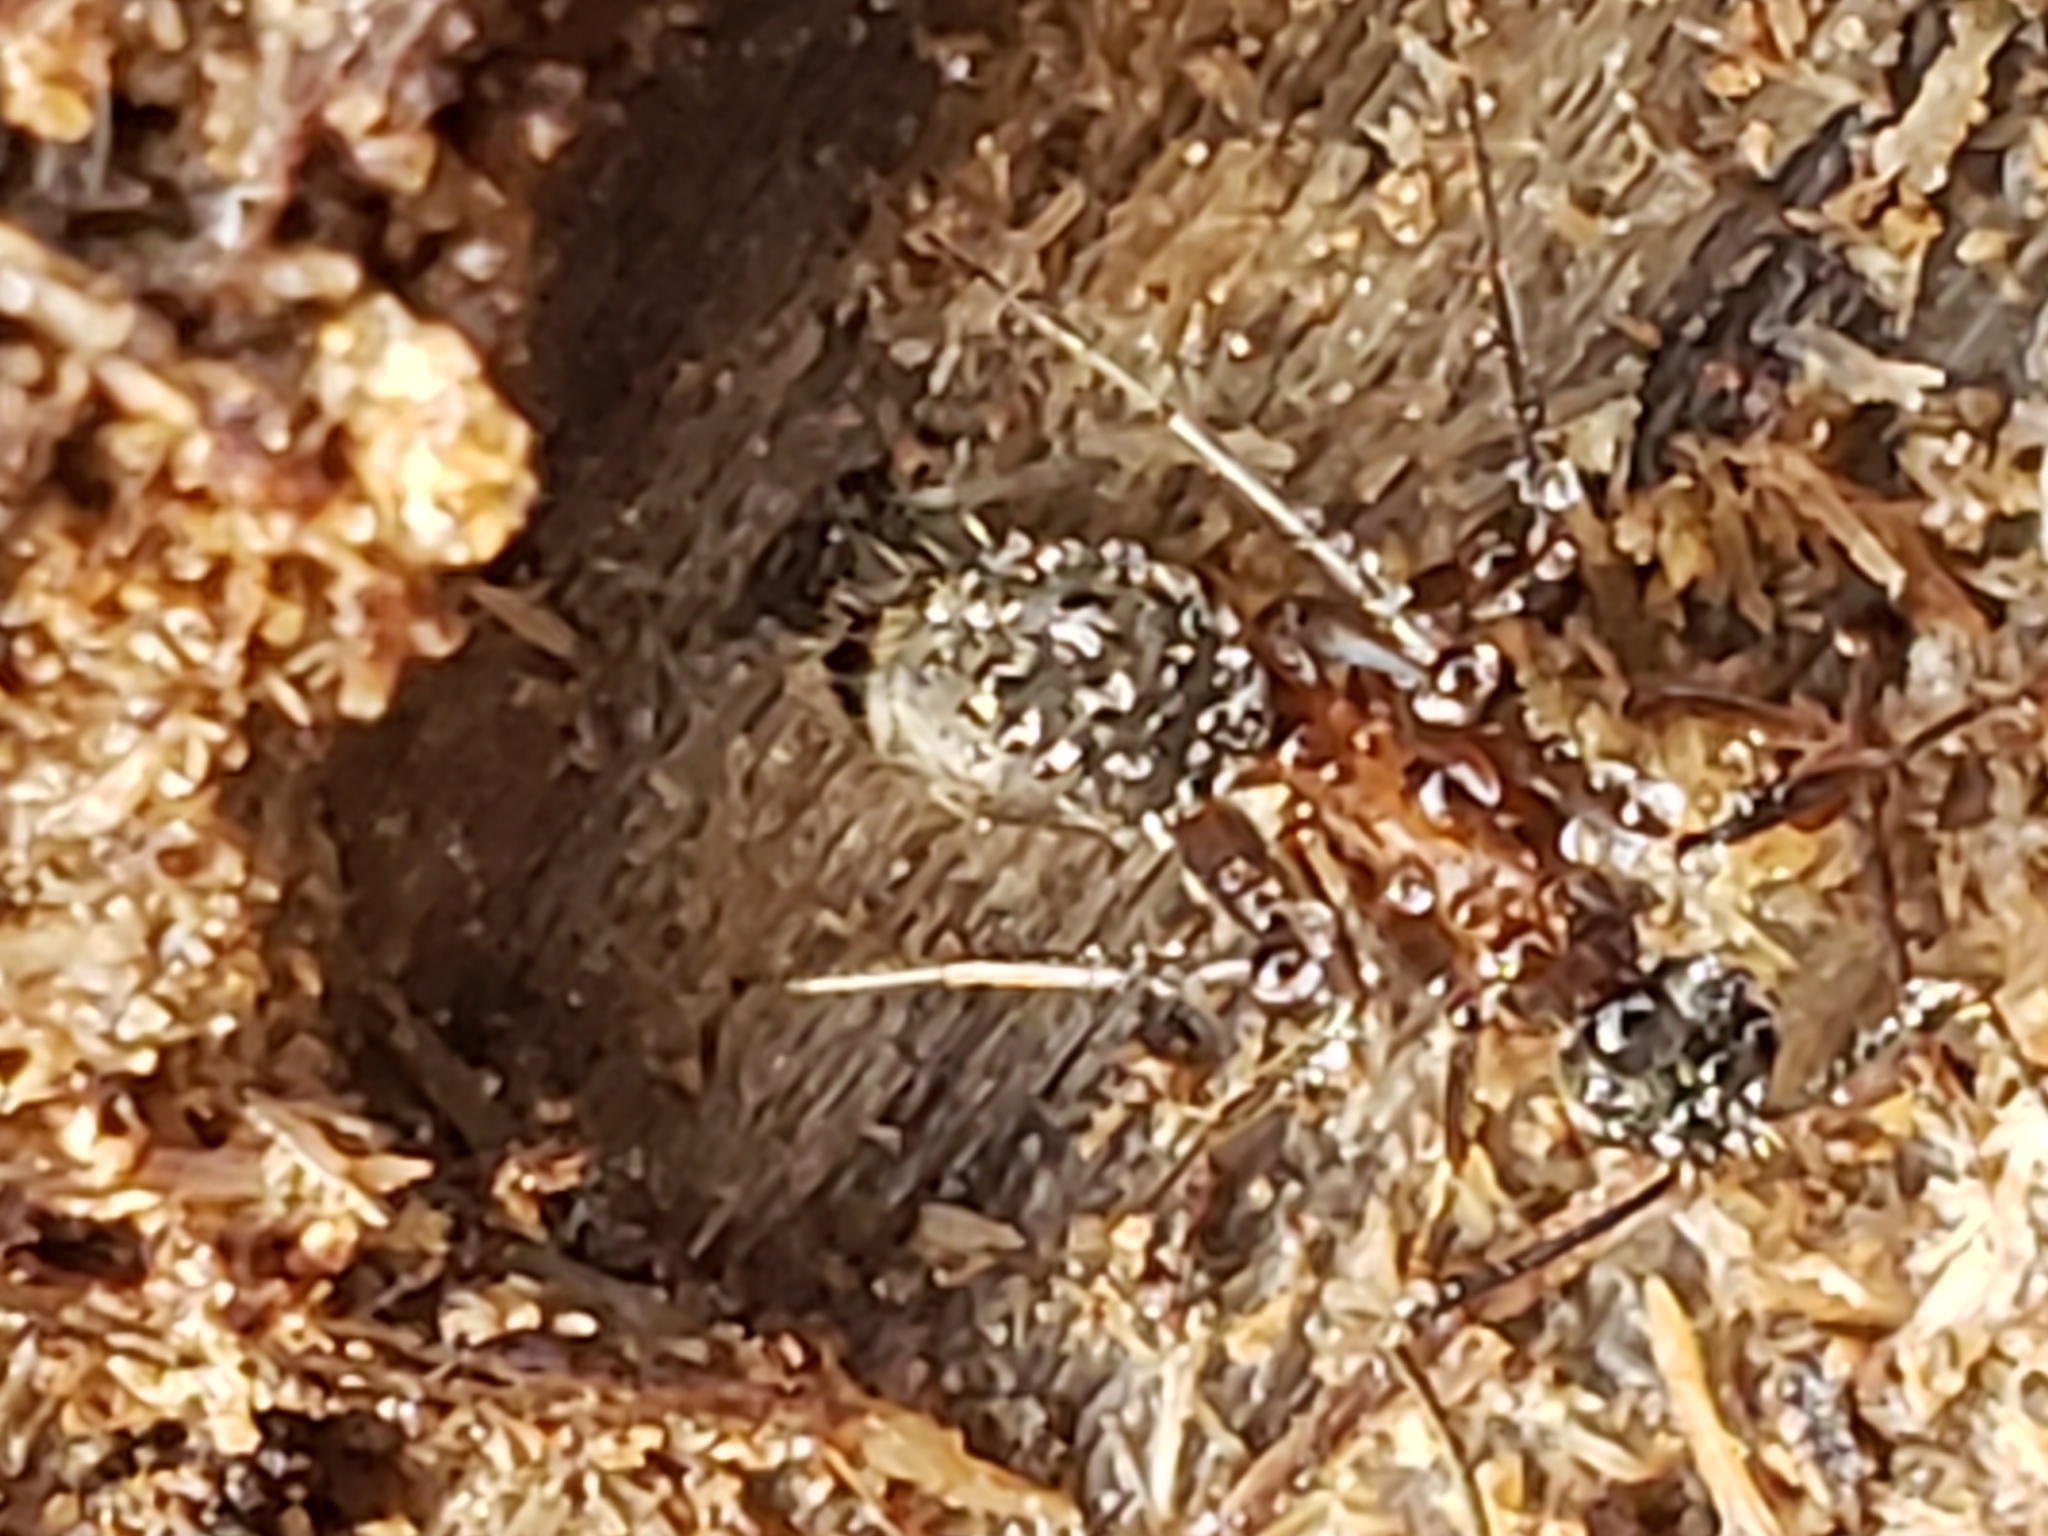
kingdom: Animalia
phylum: Arthropoda
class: Insecta
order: Hymenoptera
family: Formicidae
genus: Camponotus
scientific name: Camponotus chromaiodes
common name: Red carpenter ant
